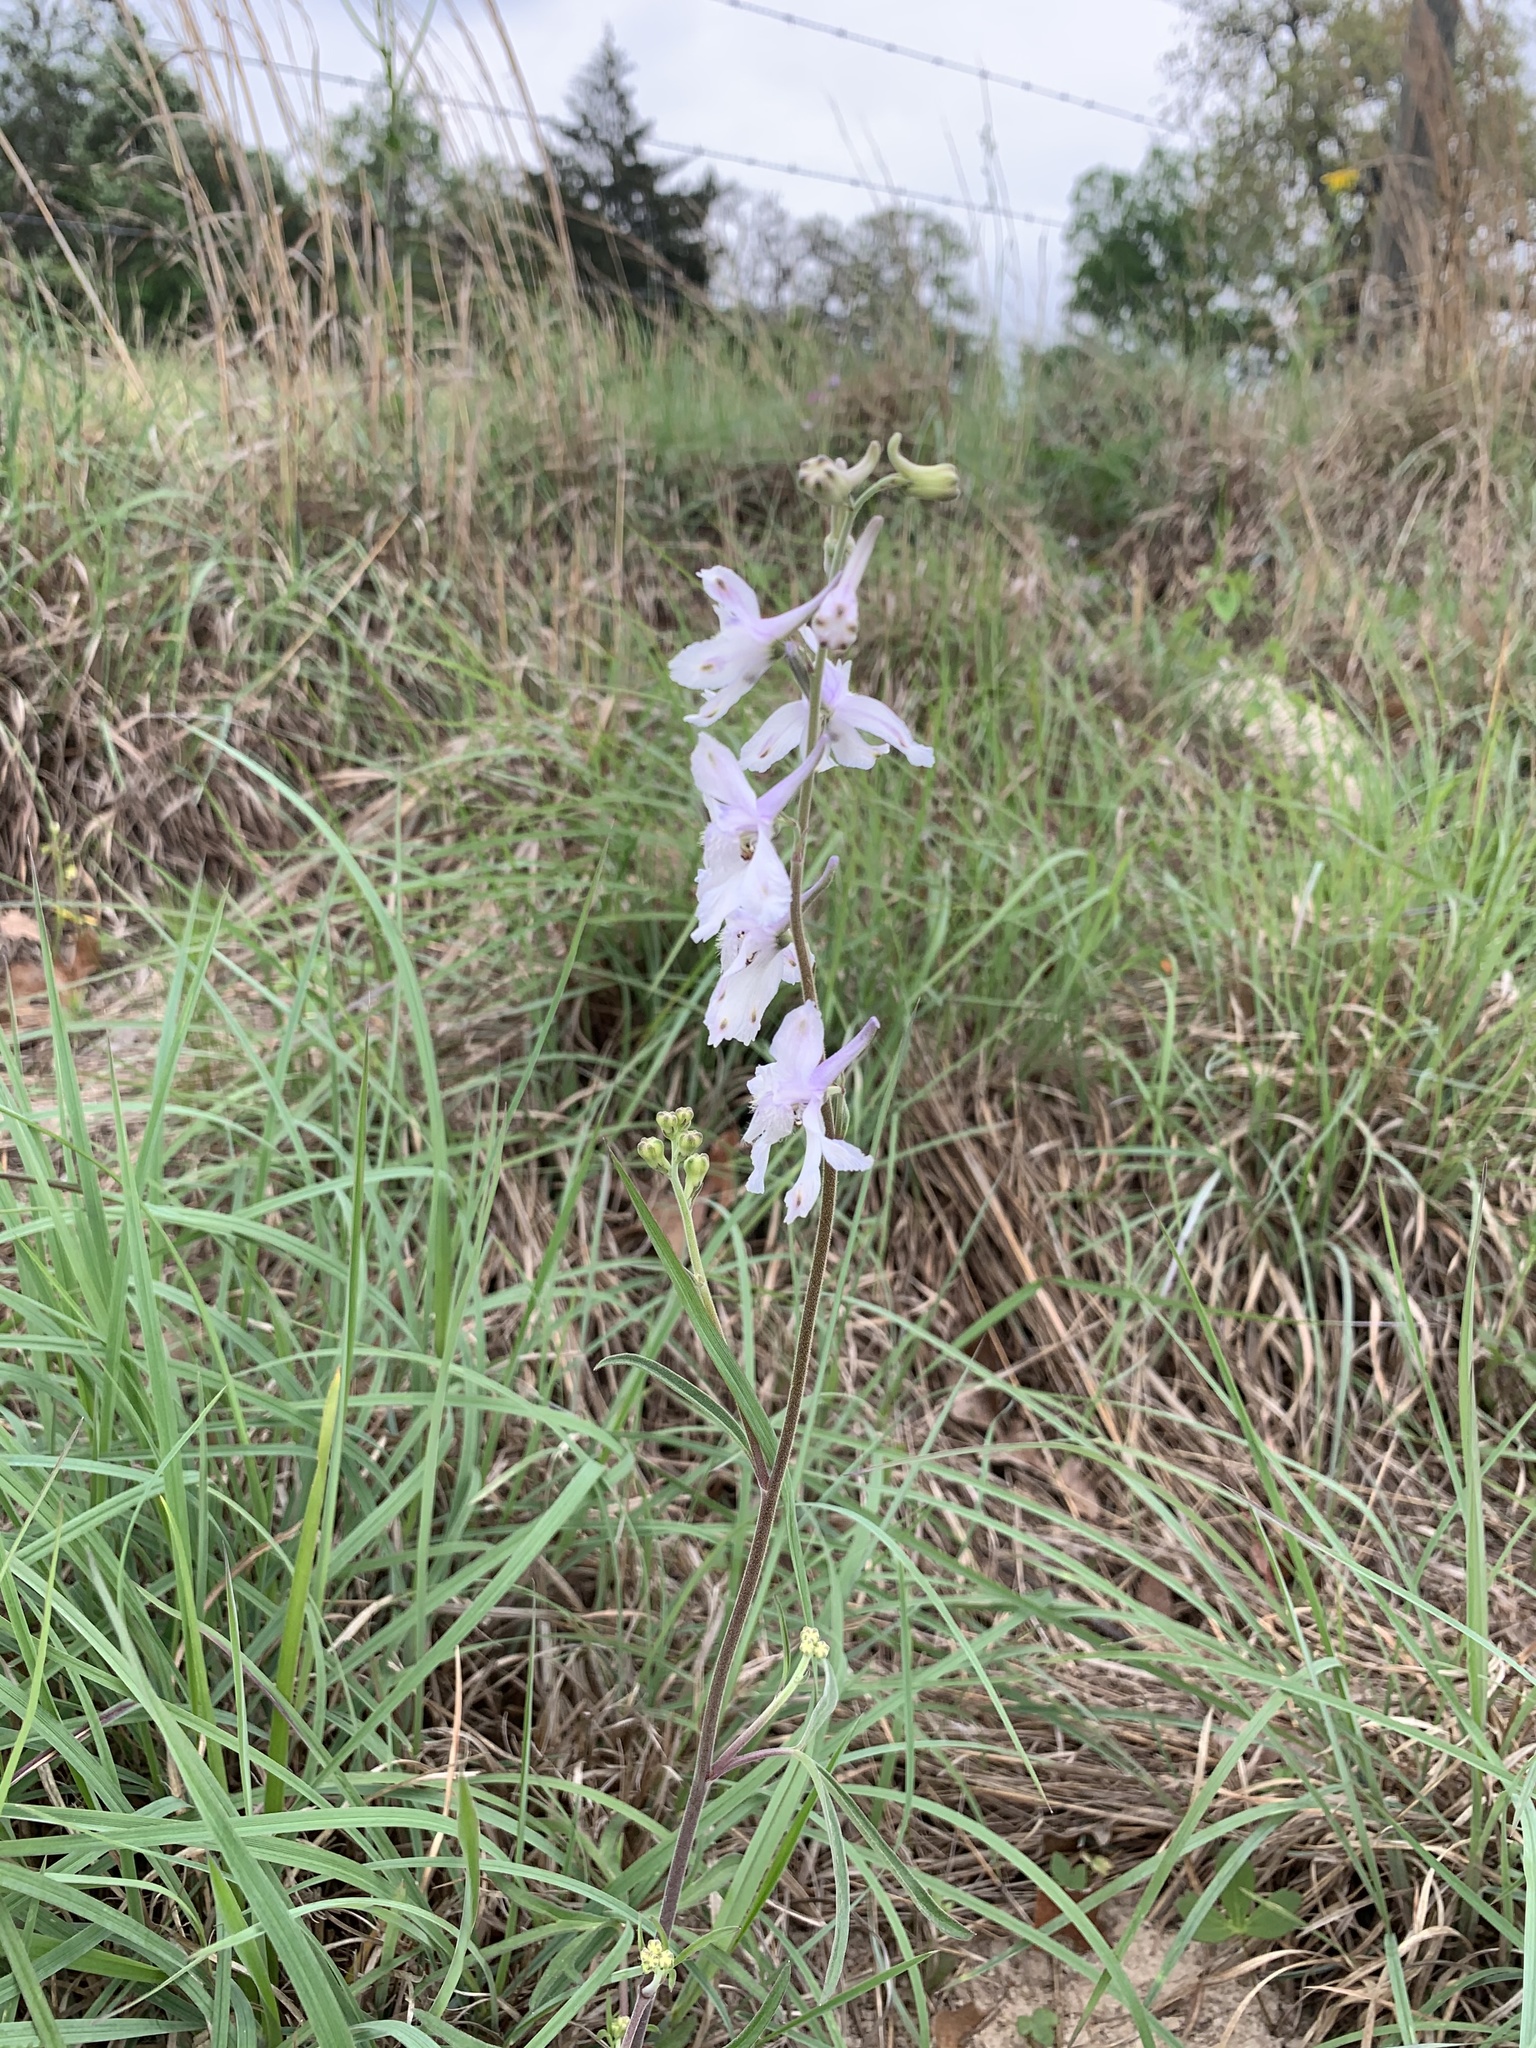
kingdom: Plantae
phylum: Tracheophyta
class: Magnoliopsida
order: Ranunculales
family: Ranunculaceae
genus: Delphinium
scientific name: Delphinium carolinianum
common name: Carolina larkspur
